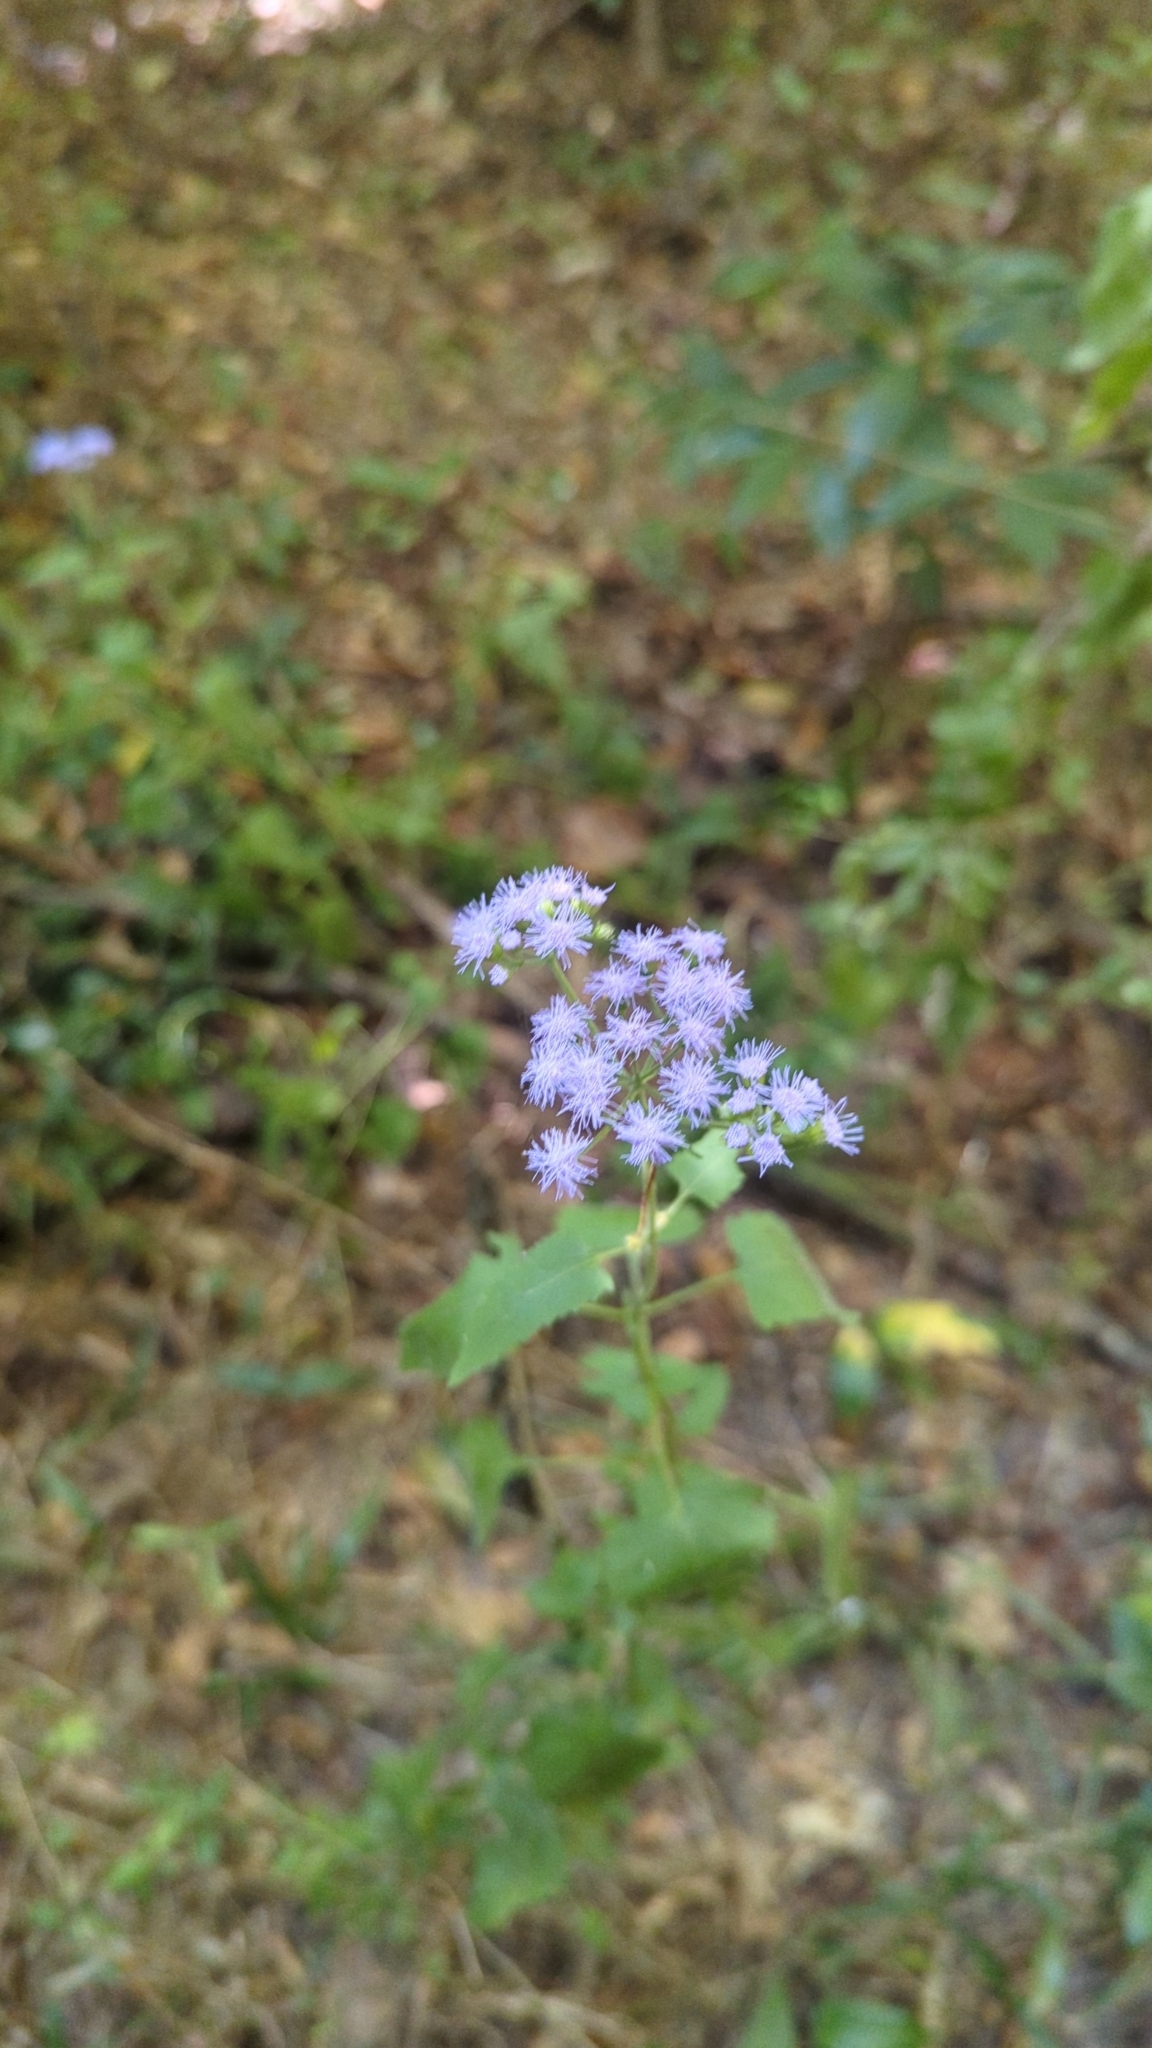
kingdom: Plantae
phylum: Tracheophyta
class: Magnoliopsida
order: Asterales
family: Asteraceae
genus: Conoclinium
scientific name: Conoclinium coelestinum
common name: Blue mistflower
